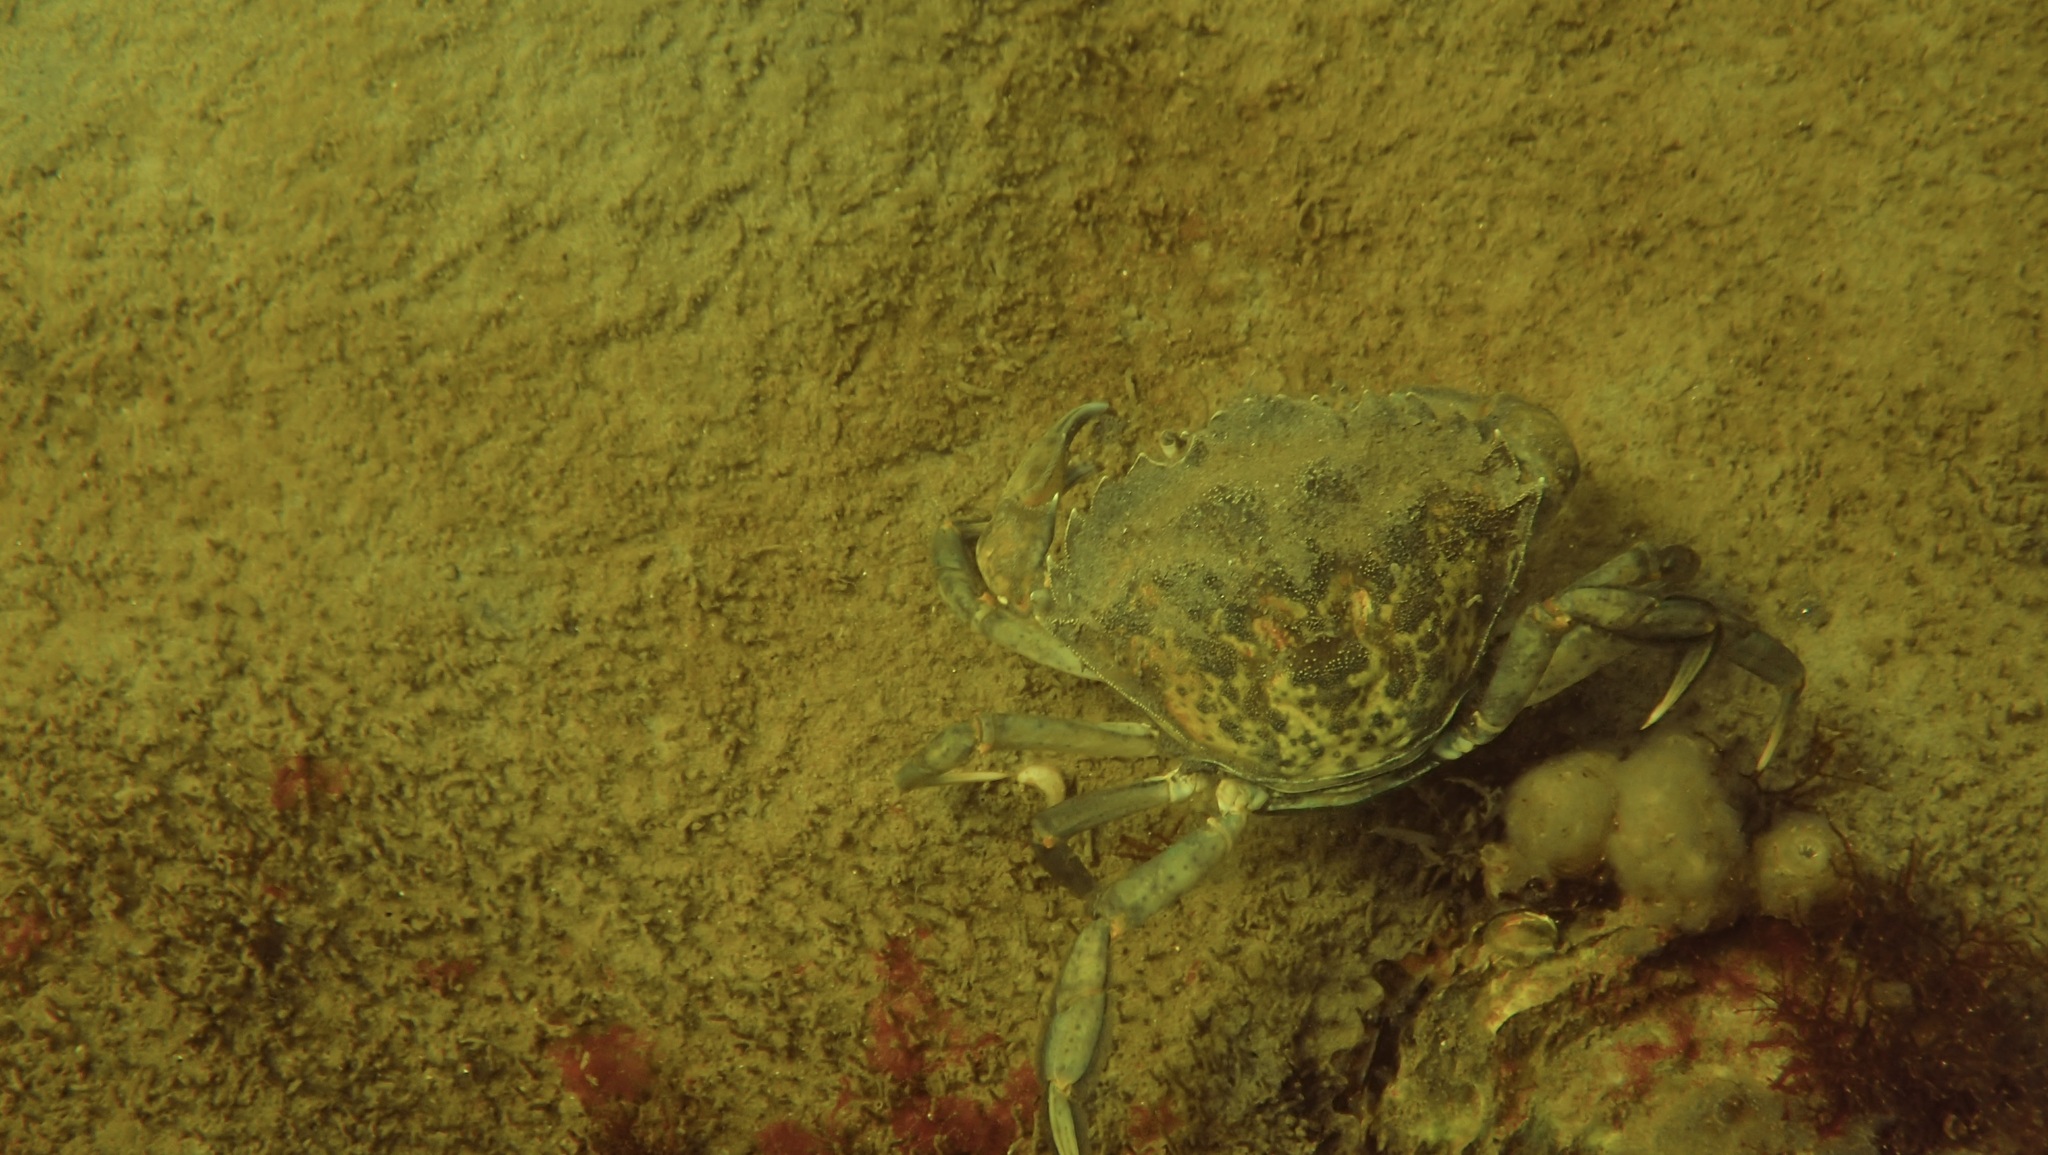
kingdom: Animalia
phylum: Arthropoda
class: Malacostraca
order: Decapoda
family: Carcinidae
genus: Carcinus
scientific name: Carcinus maenas
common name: European green crab
